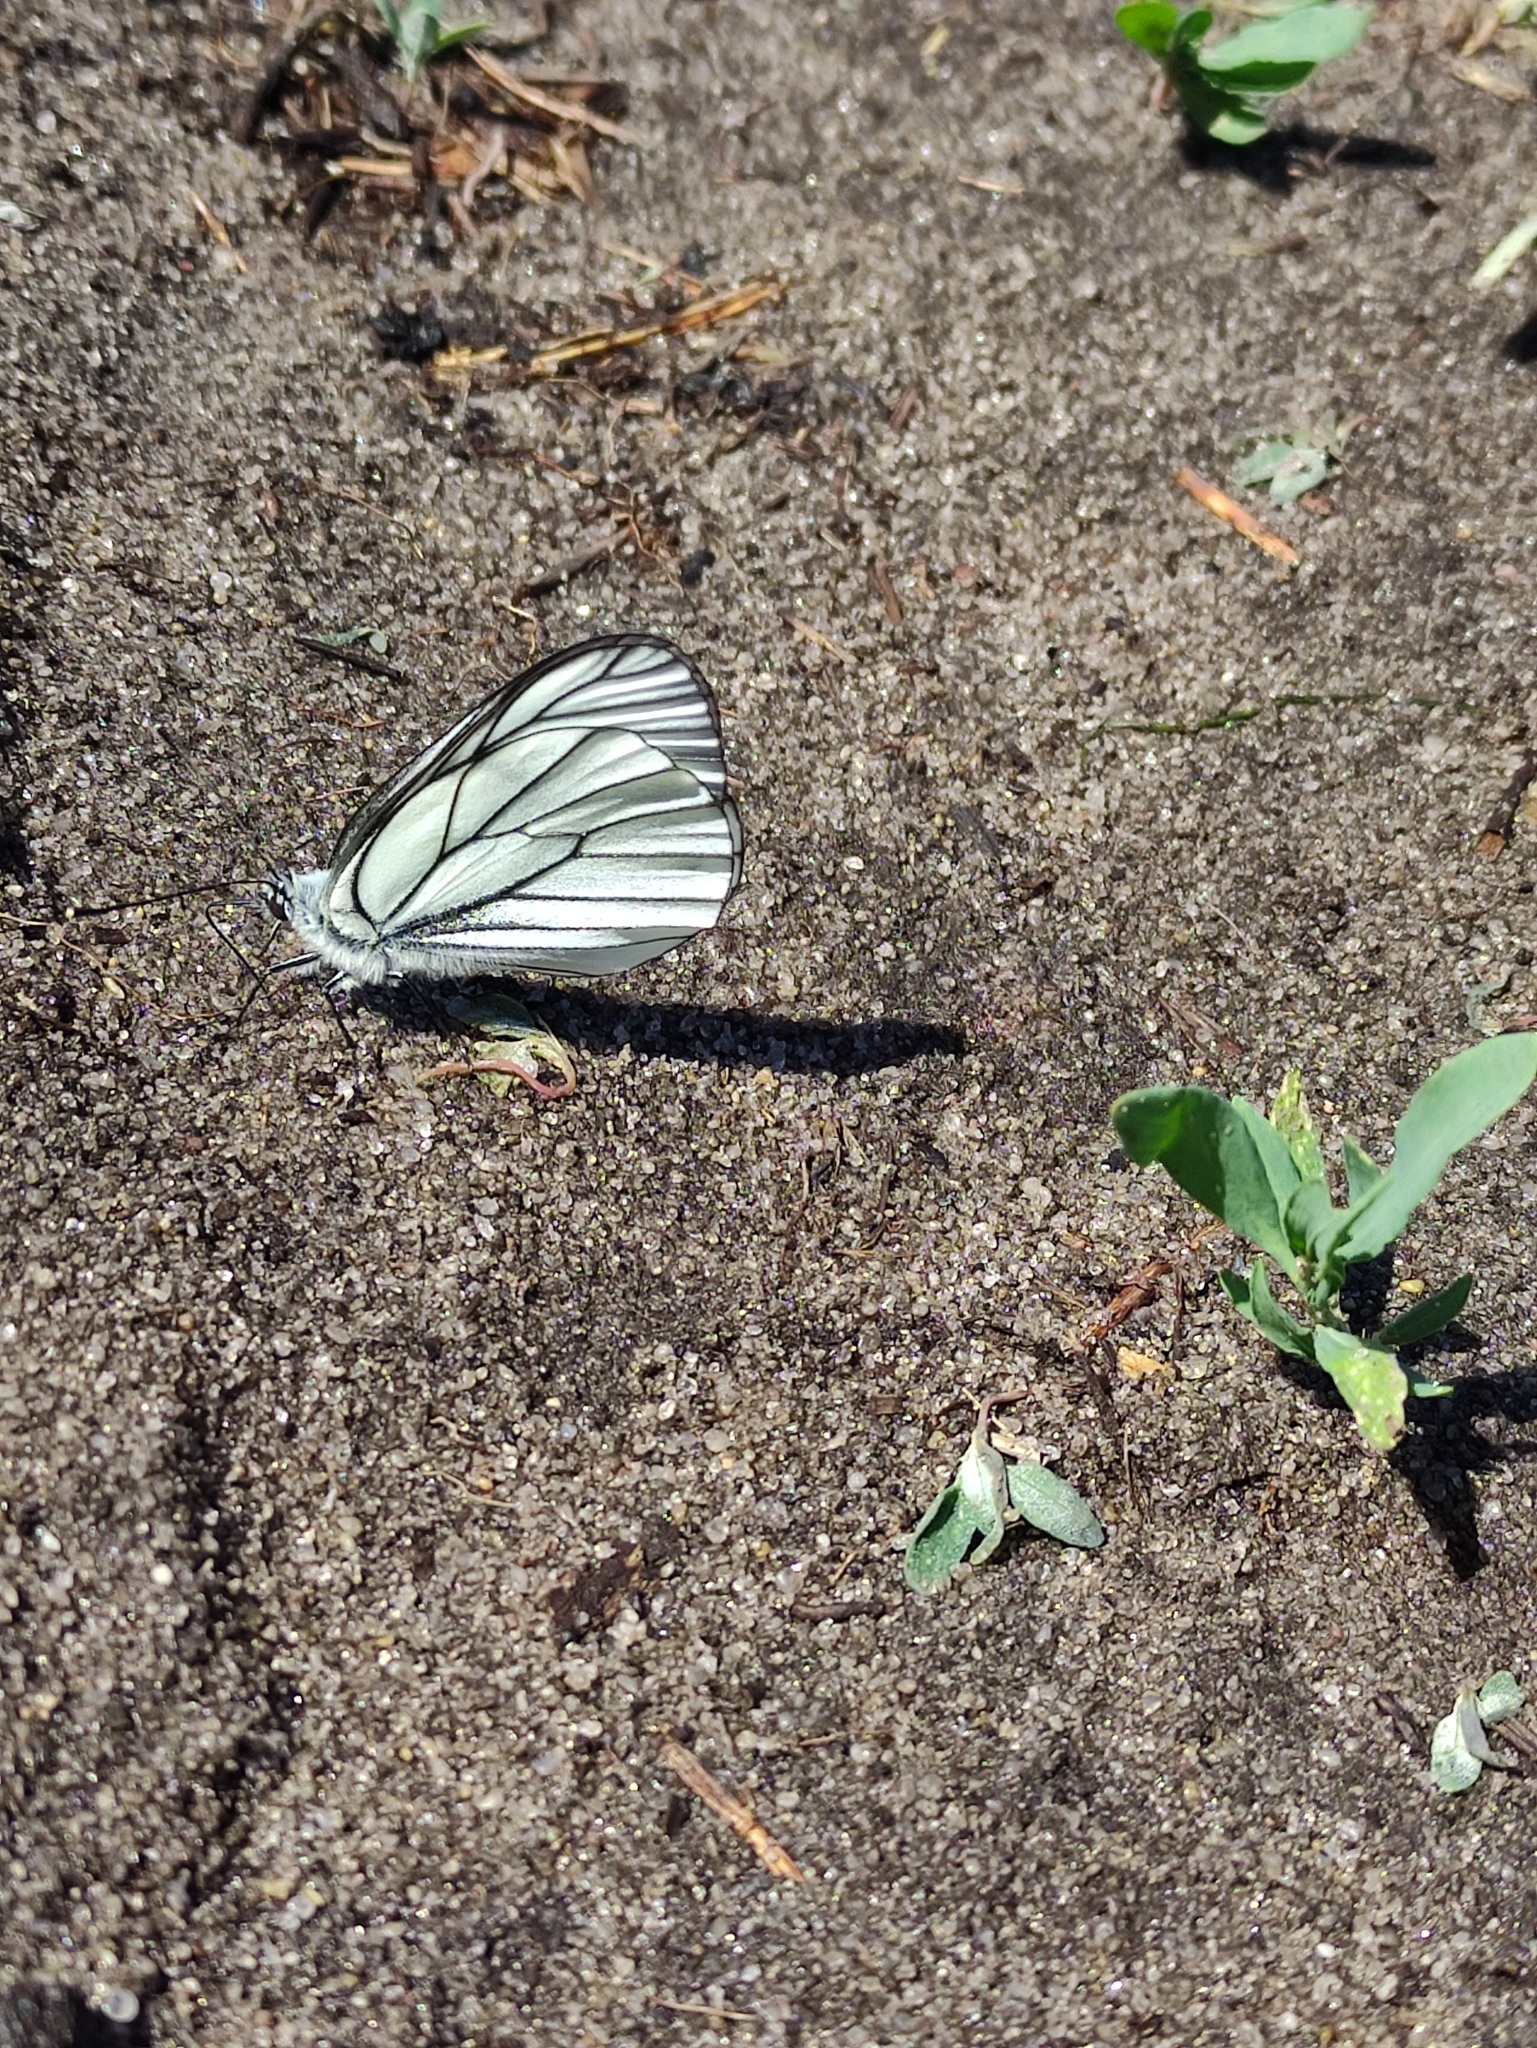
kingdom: Animalia
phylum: Arthropoda
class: Insecta
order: Lepidoptera
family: Pieridae
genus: Aporia
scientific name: Aporia crataegi
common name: Black-veined white
